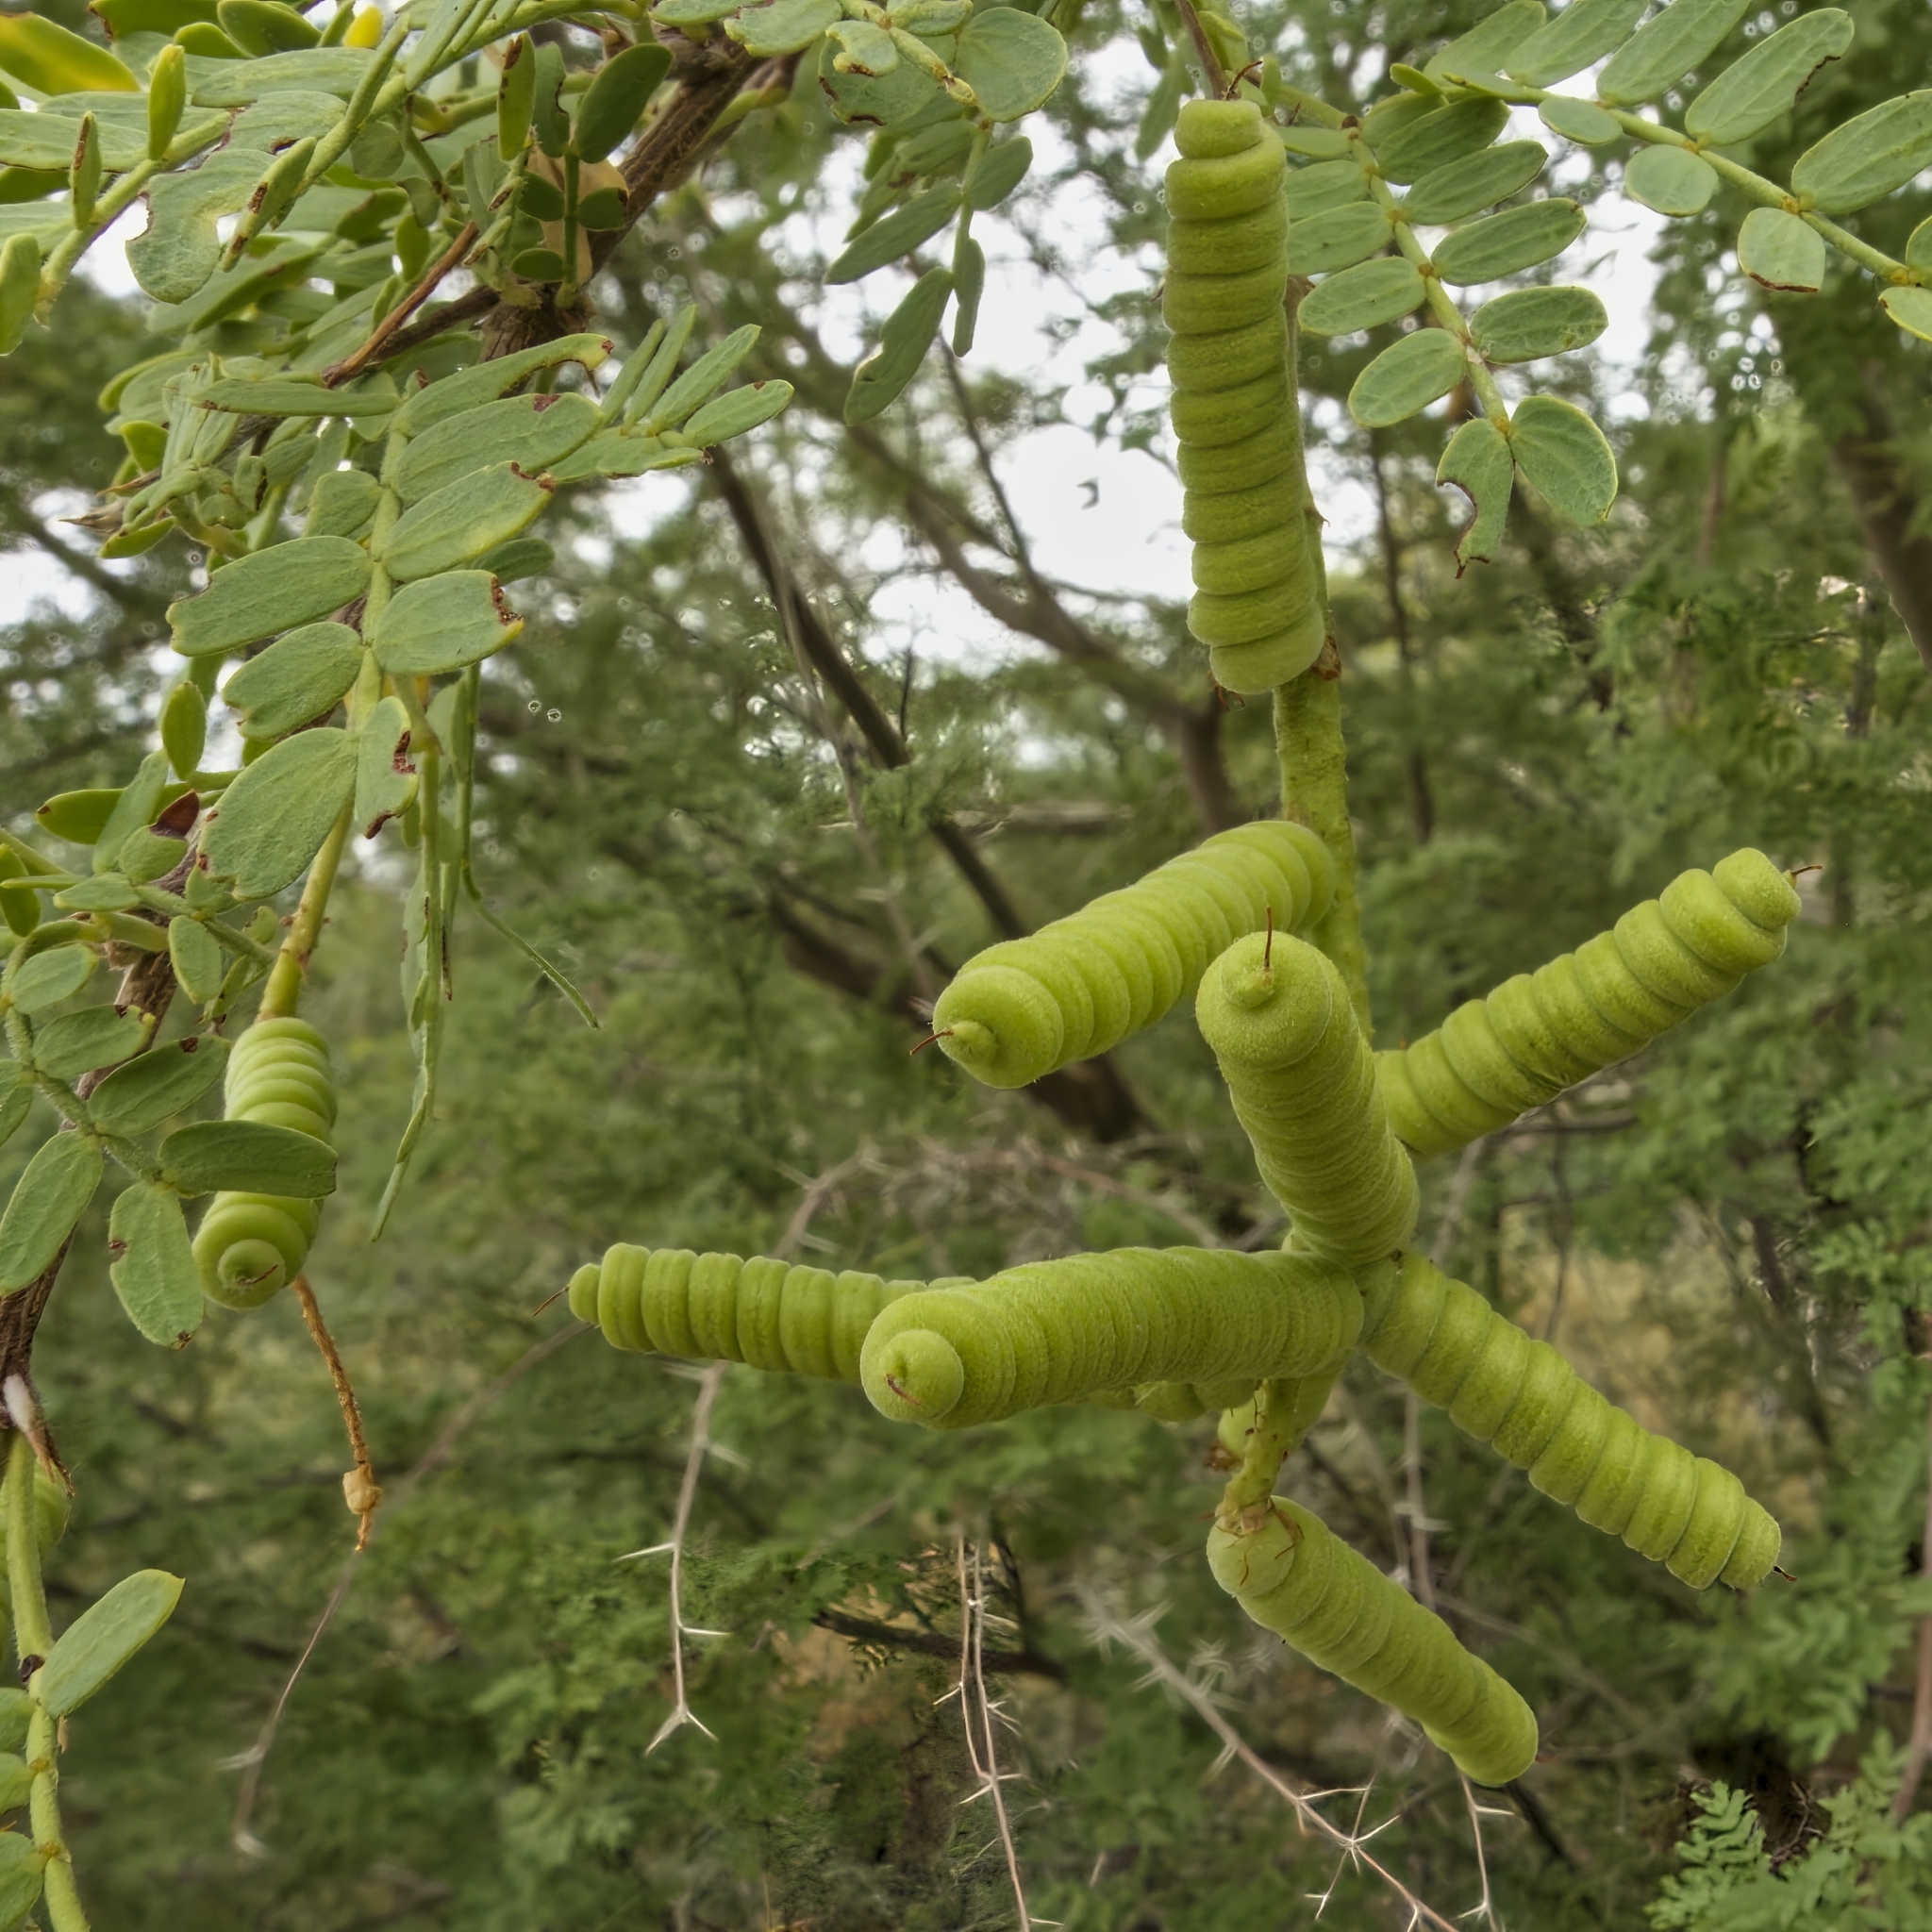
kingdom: Plantae
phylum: Tracheophyta
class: Magnoliopsida
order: Fabales
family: Fabaceae
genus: Prosopis
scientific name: Prosopis pubescens
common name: Screw-bean
